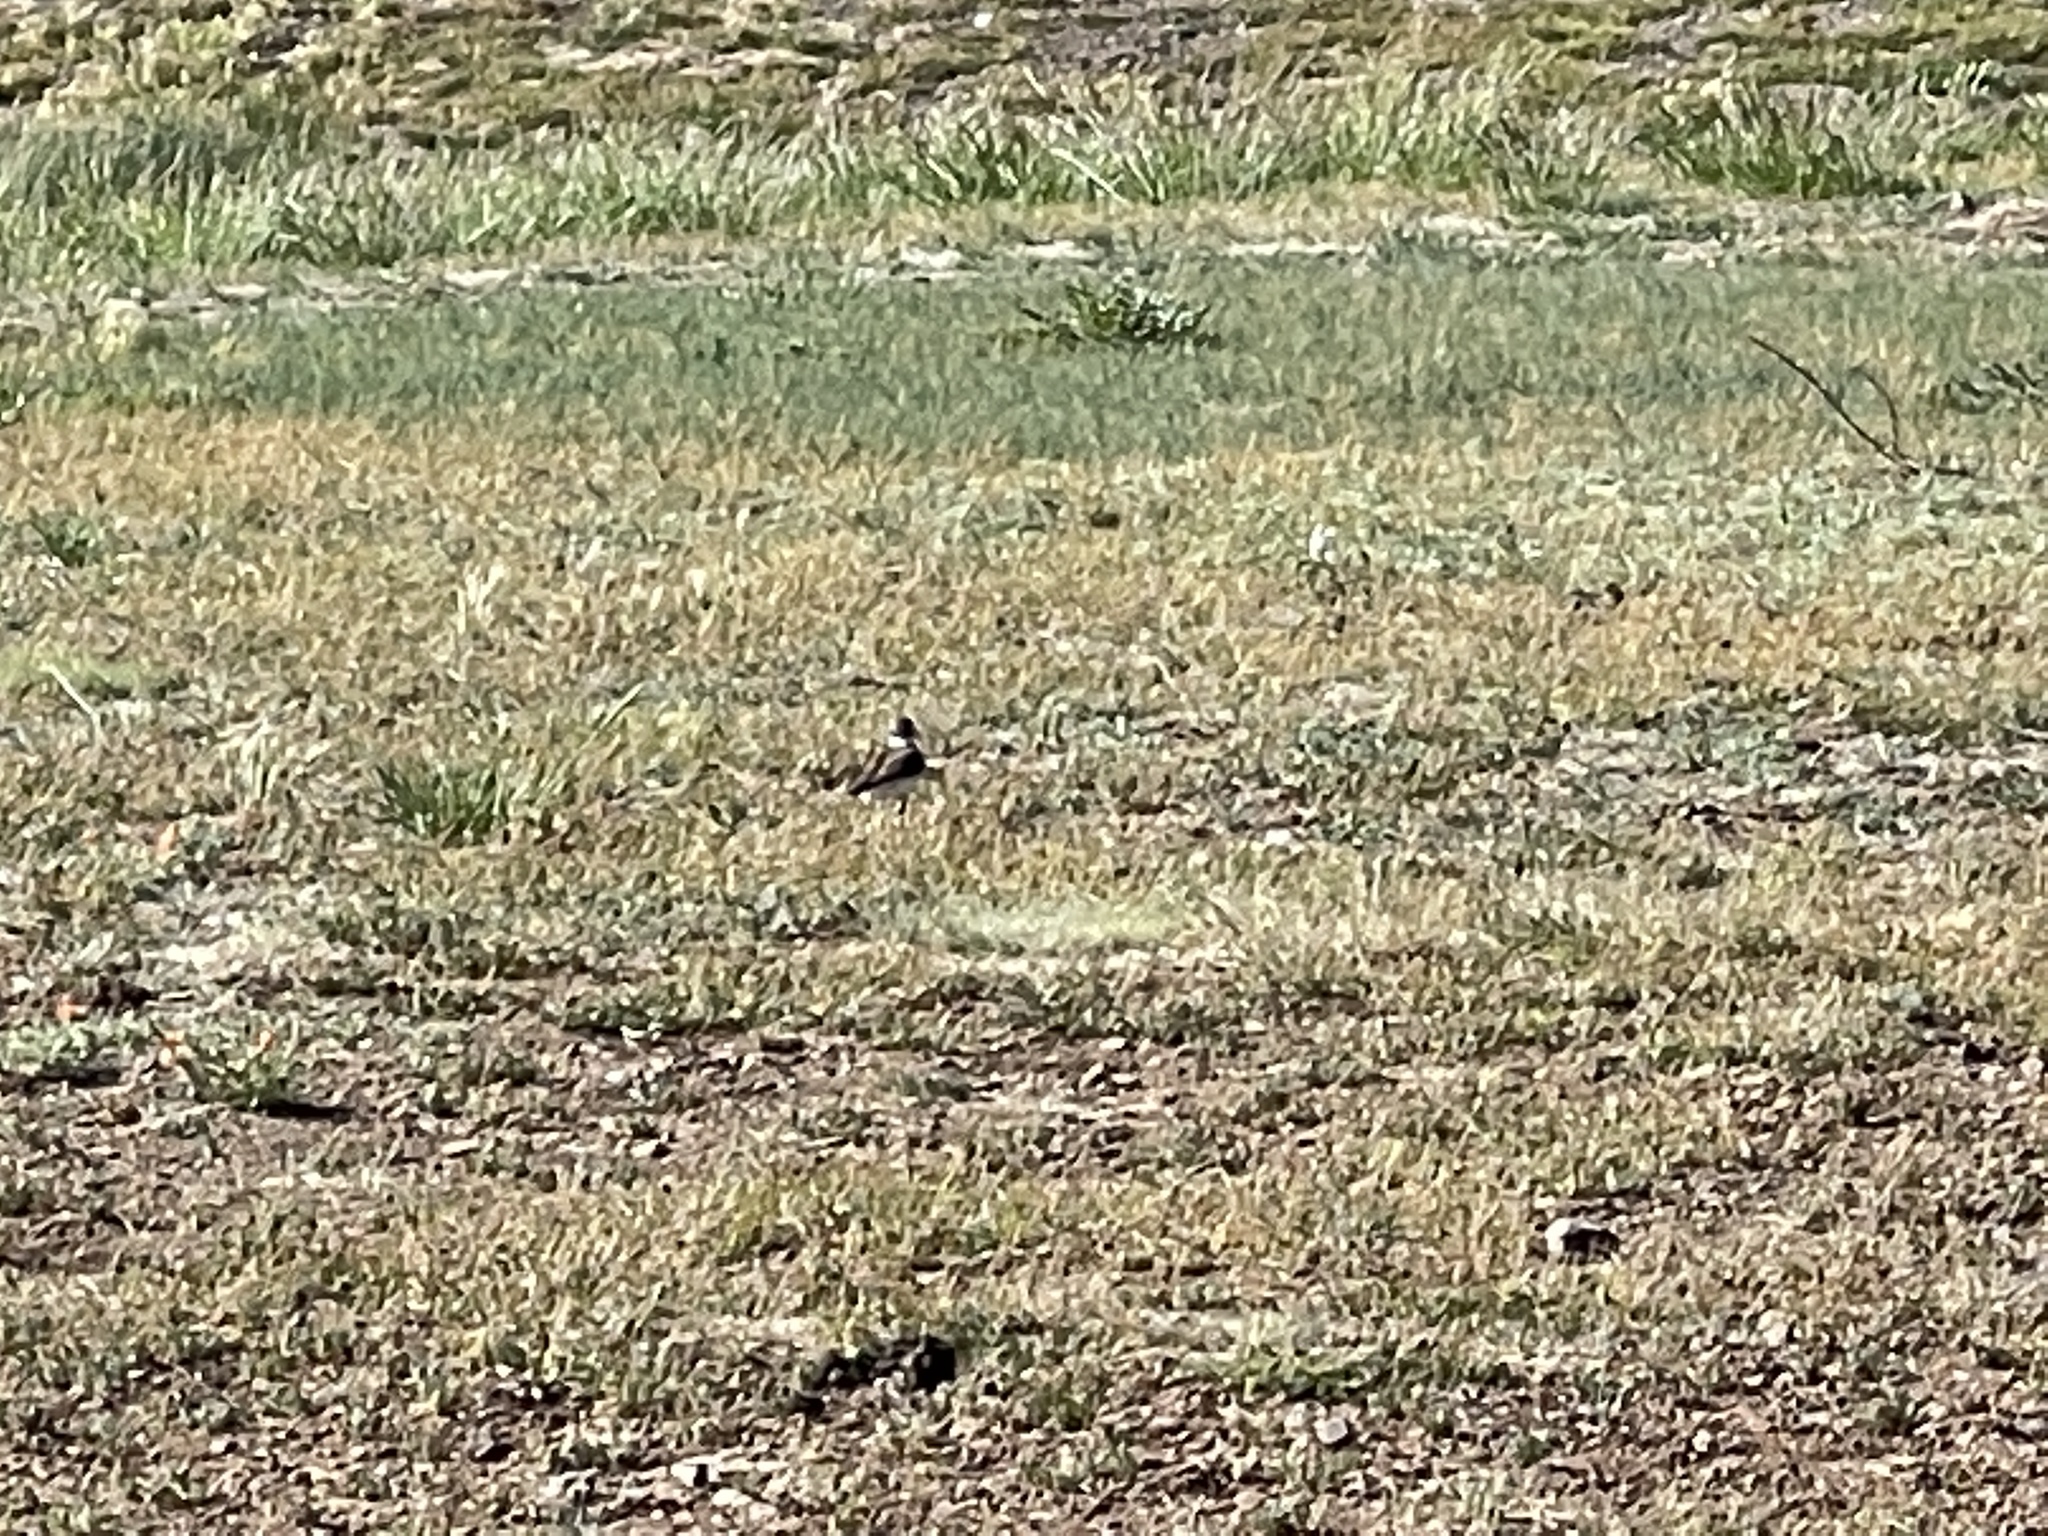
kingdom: Animalia
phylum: Chordata
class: Aves
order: Charadriiformes
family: Charadriidae
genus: Charadrius
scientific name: Charadrius vociferus
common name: Killdeer
